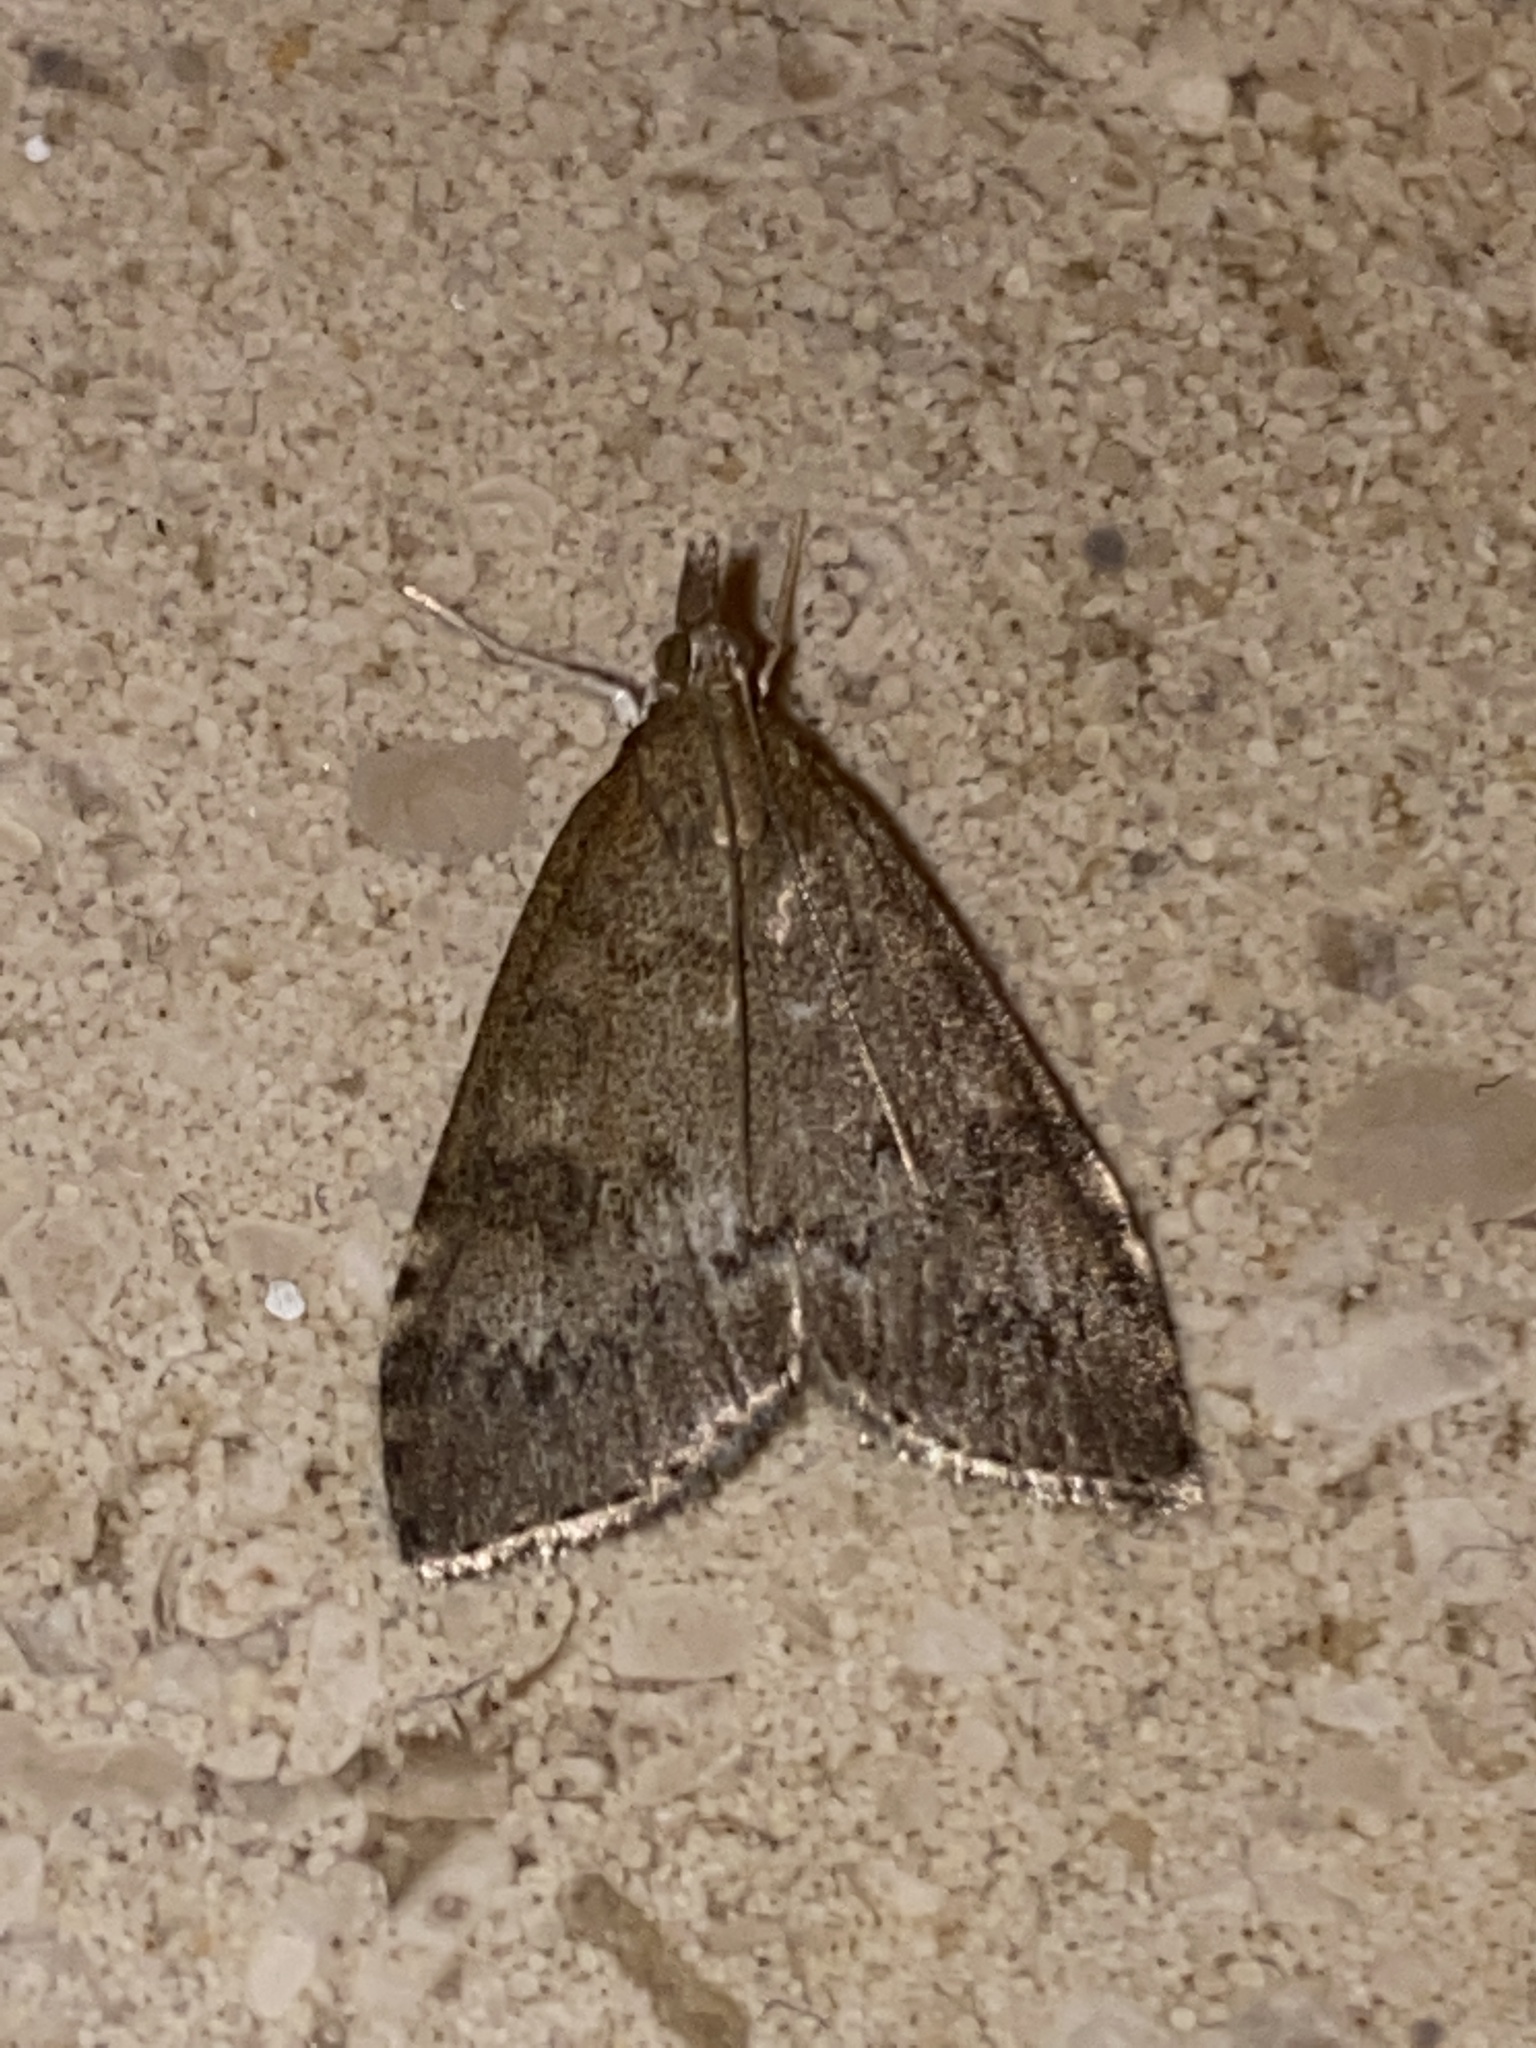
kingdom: Animalia
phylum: Arthropoda
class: Insecta
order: Lepidoptera
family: Crambidae
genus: Udea
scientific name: Udea prunalis
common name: Dusky pearl
